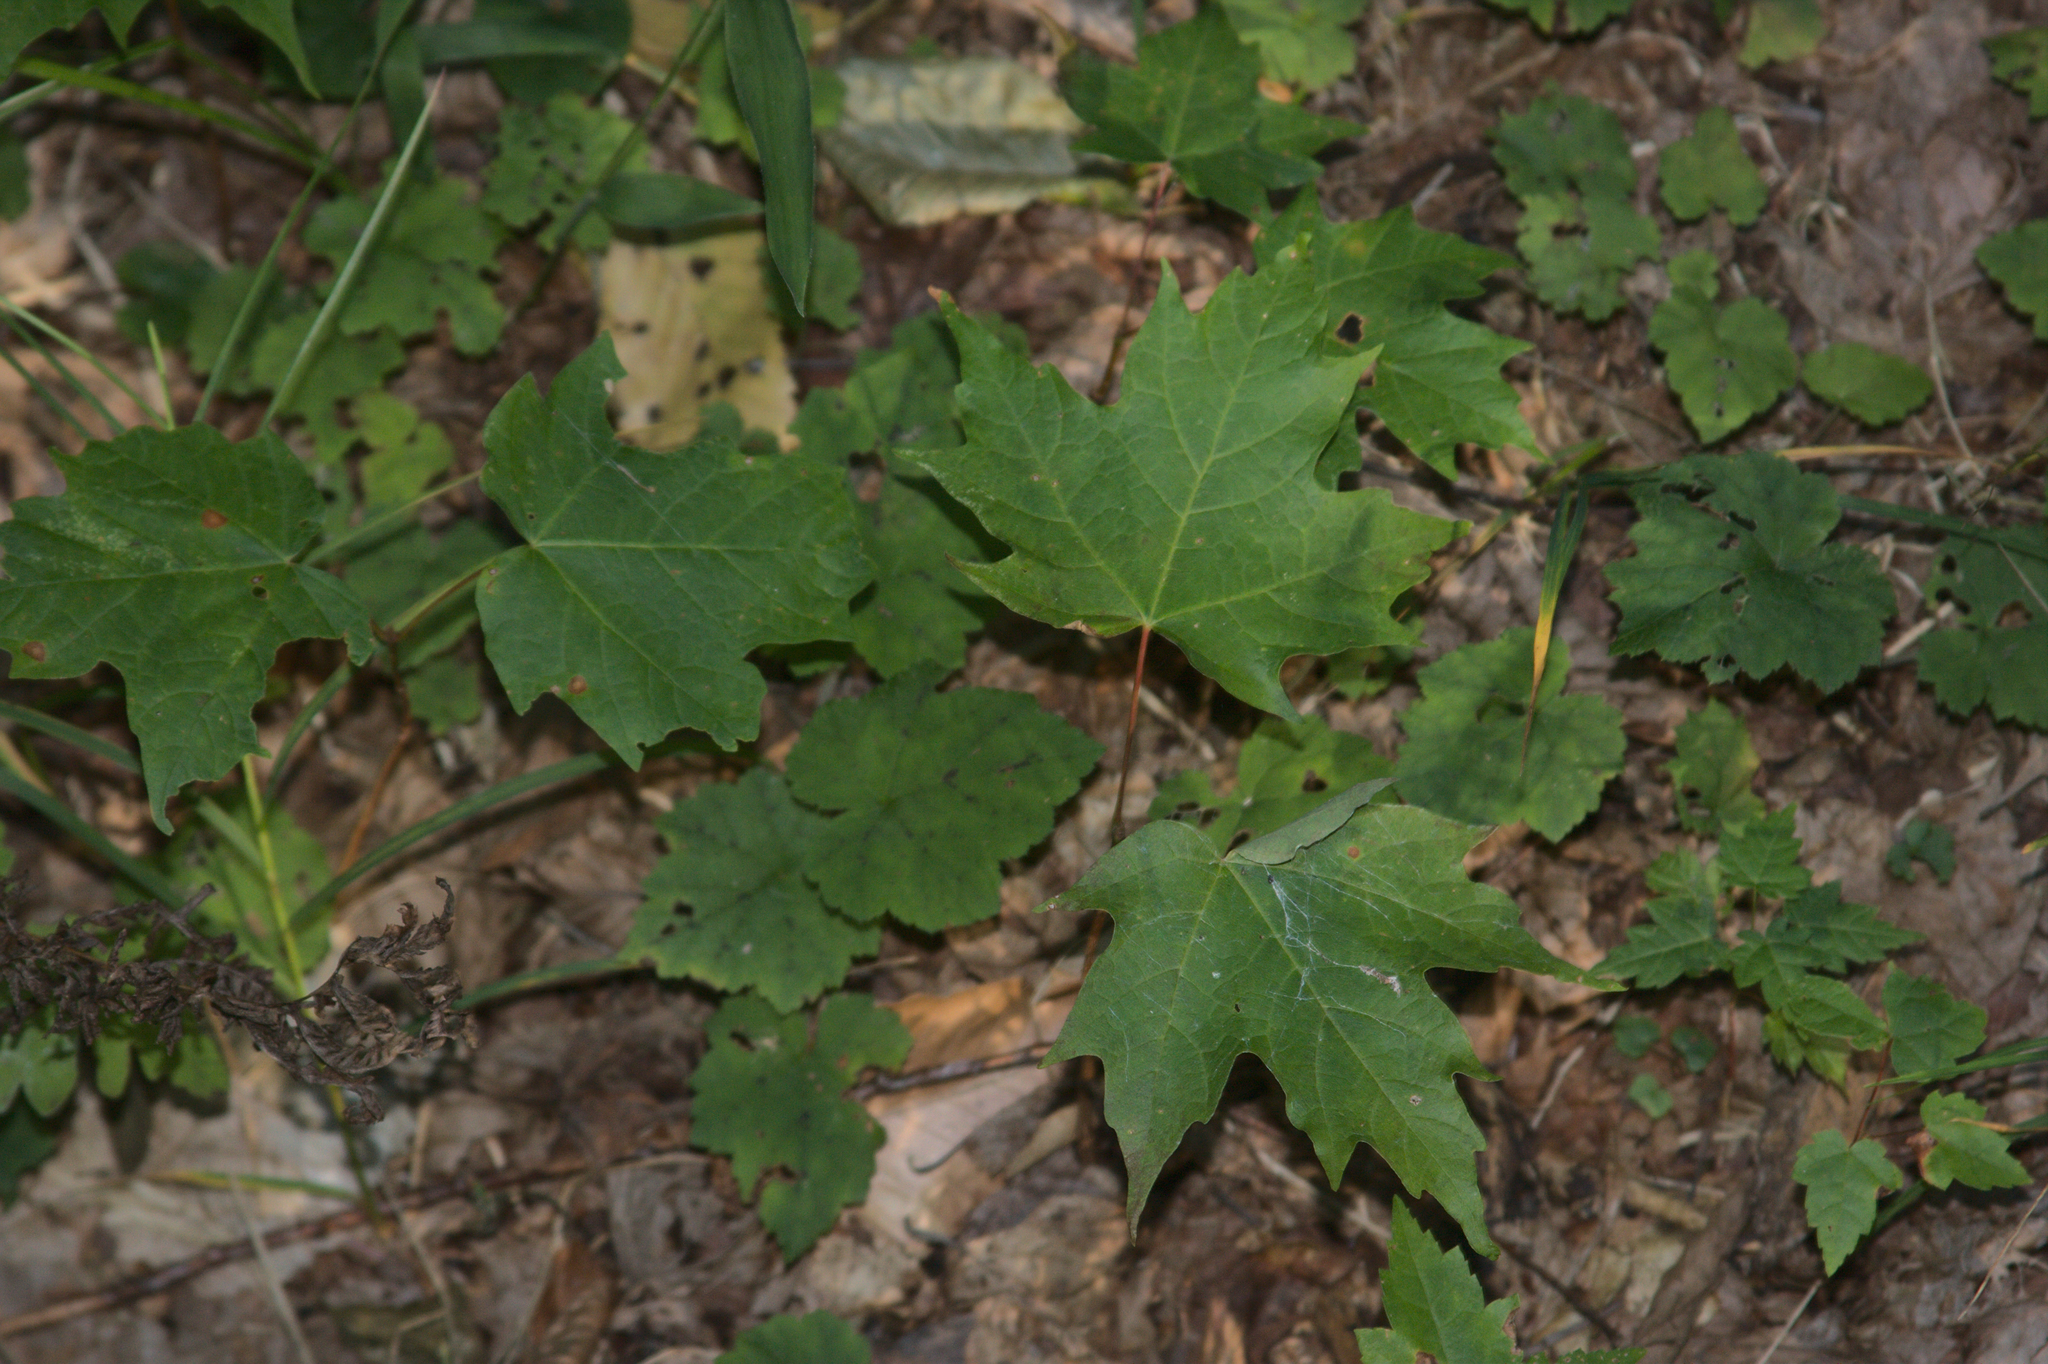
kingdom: Plantae
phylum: Tracheophyta
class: Magnoliopsida
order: Sapindales
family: Sapindaceae
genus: Acer
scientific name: Acer saccharum
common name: Sugar maple
